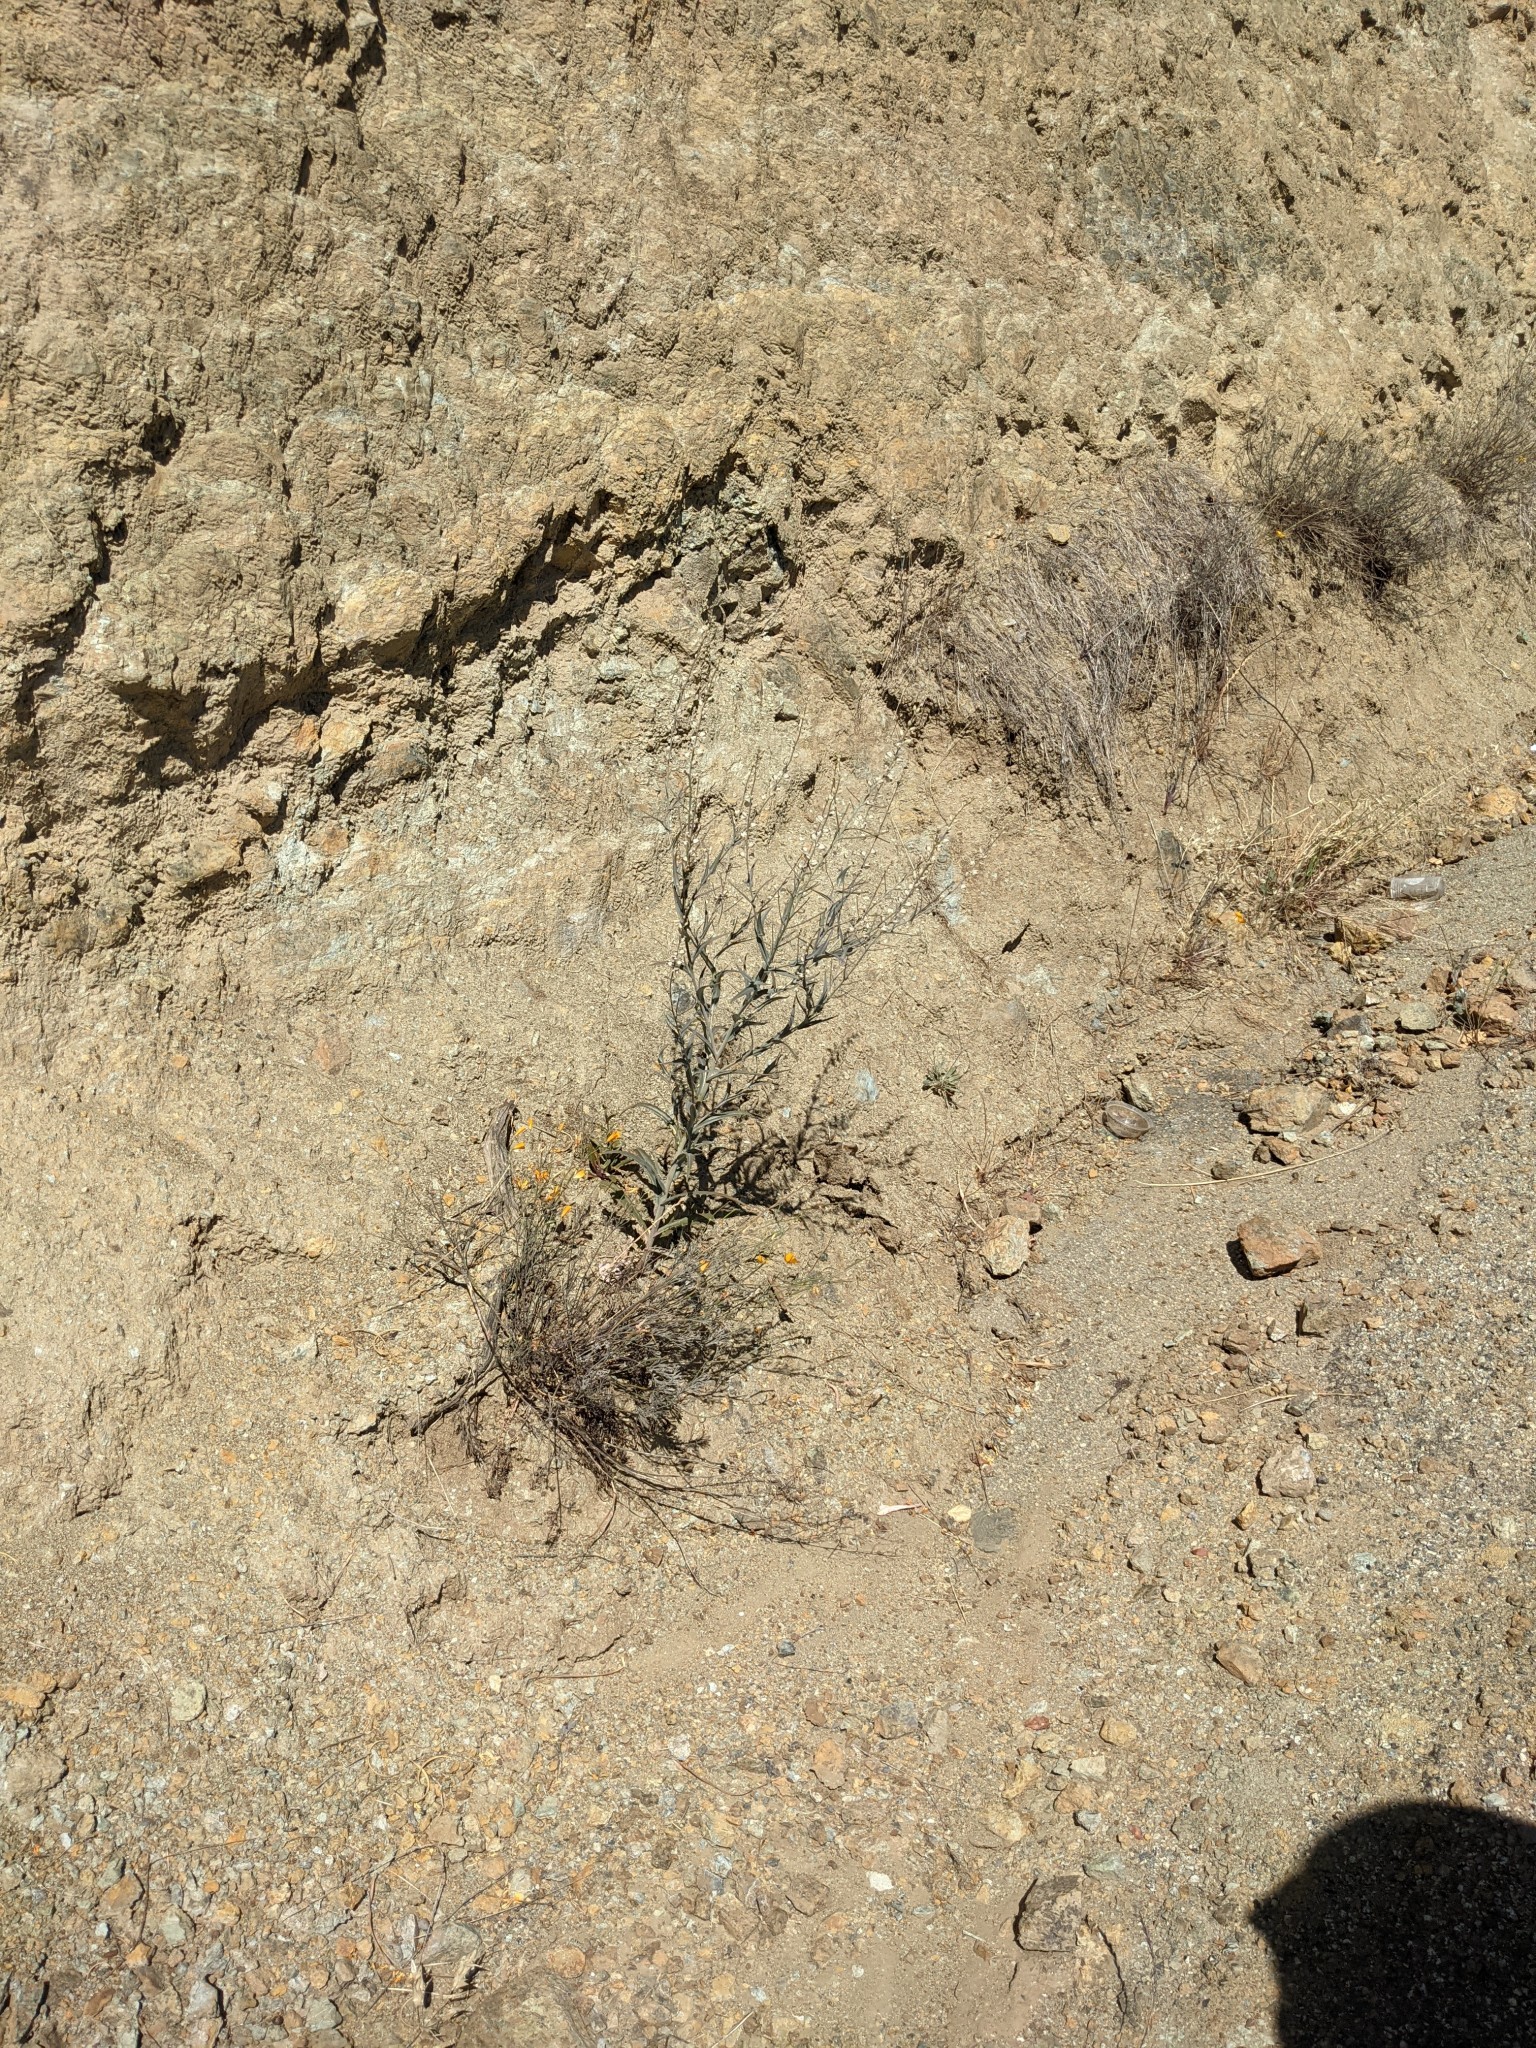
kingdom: Plantae
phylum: Tracheophyta
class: Magnoliopsida
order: Brassicales
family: Brassicaceae
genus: Streptanthus
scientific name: Streptanthus glandulosus
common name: Jewel-flower
